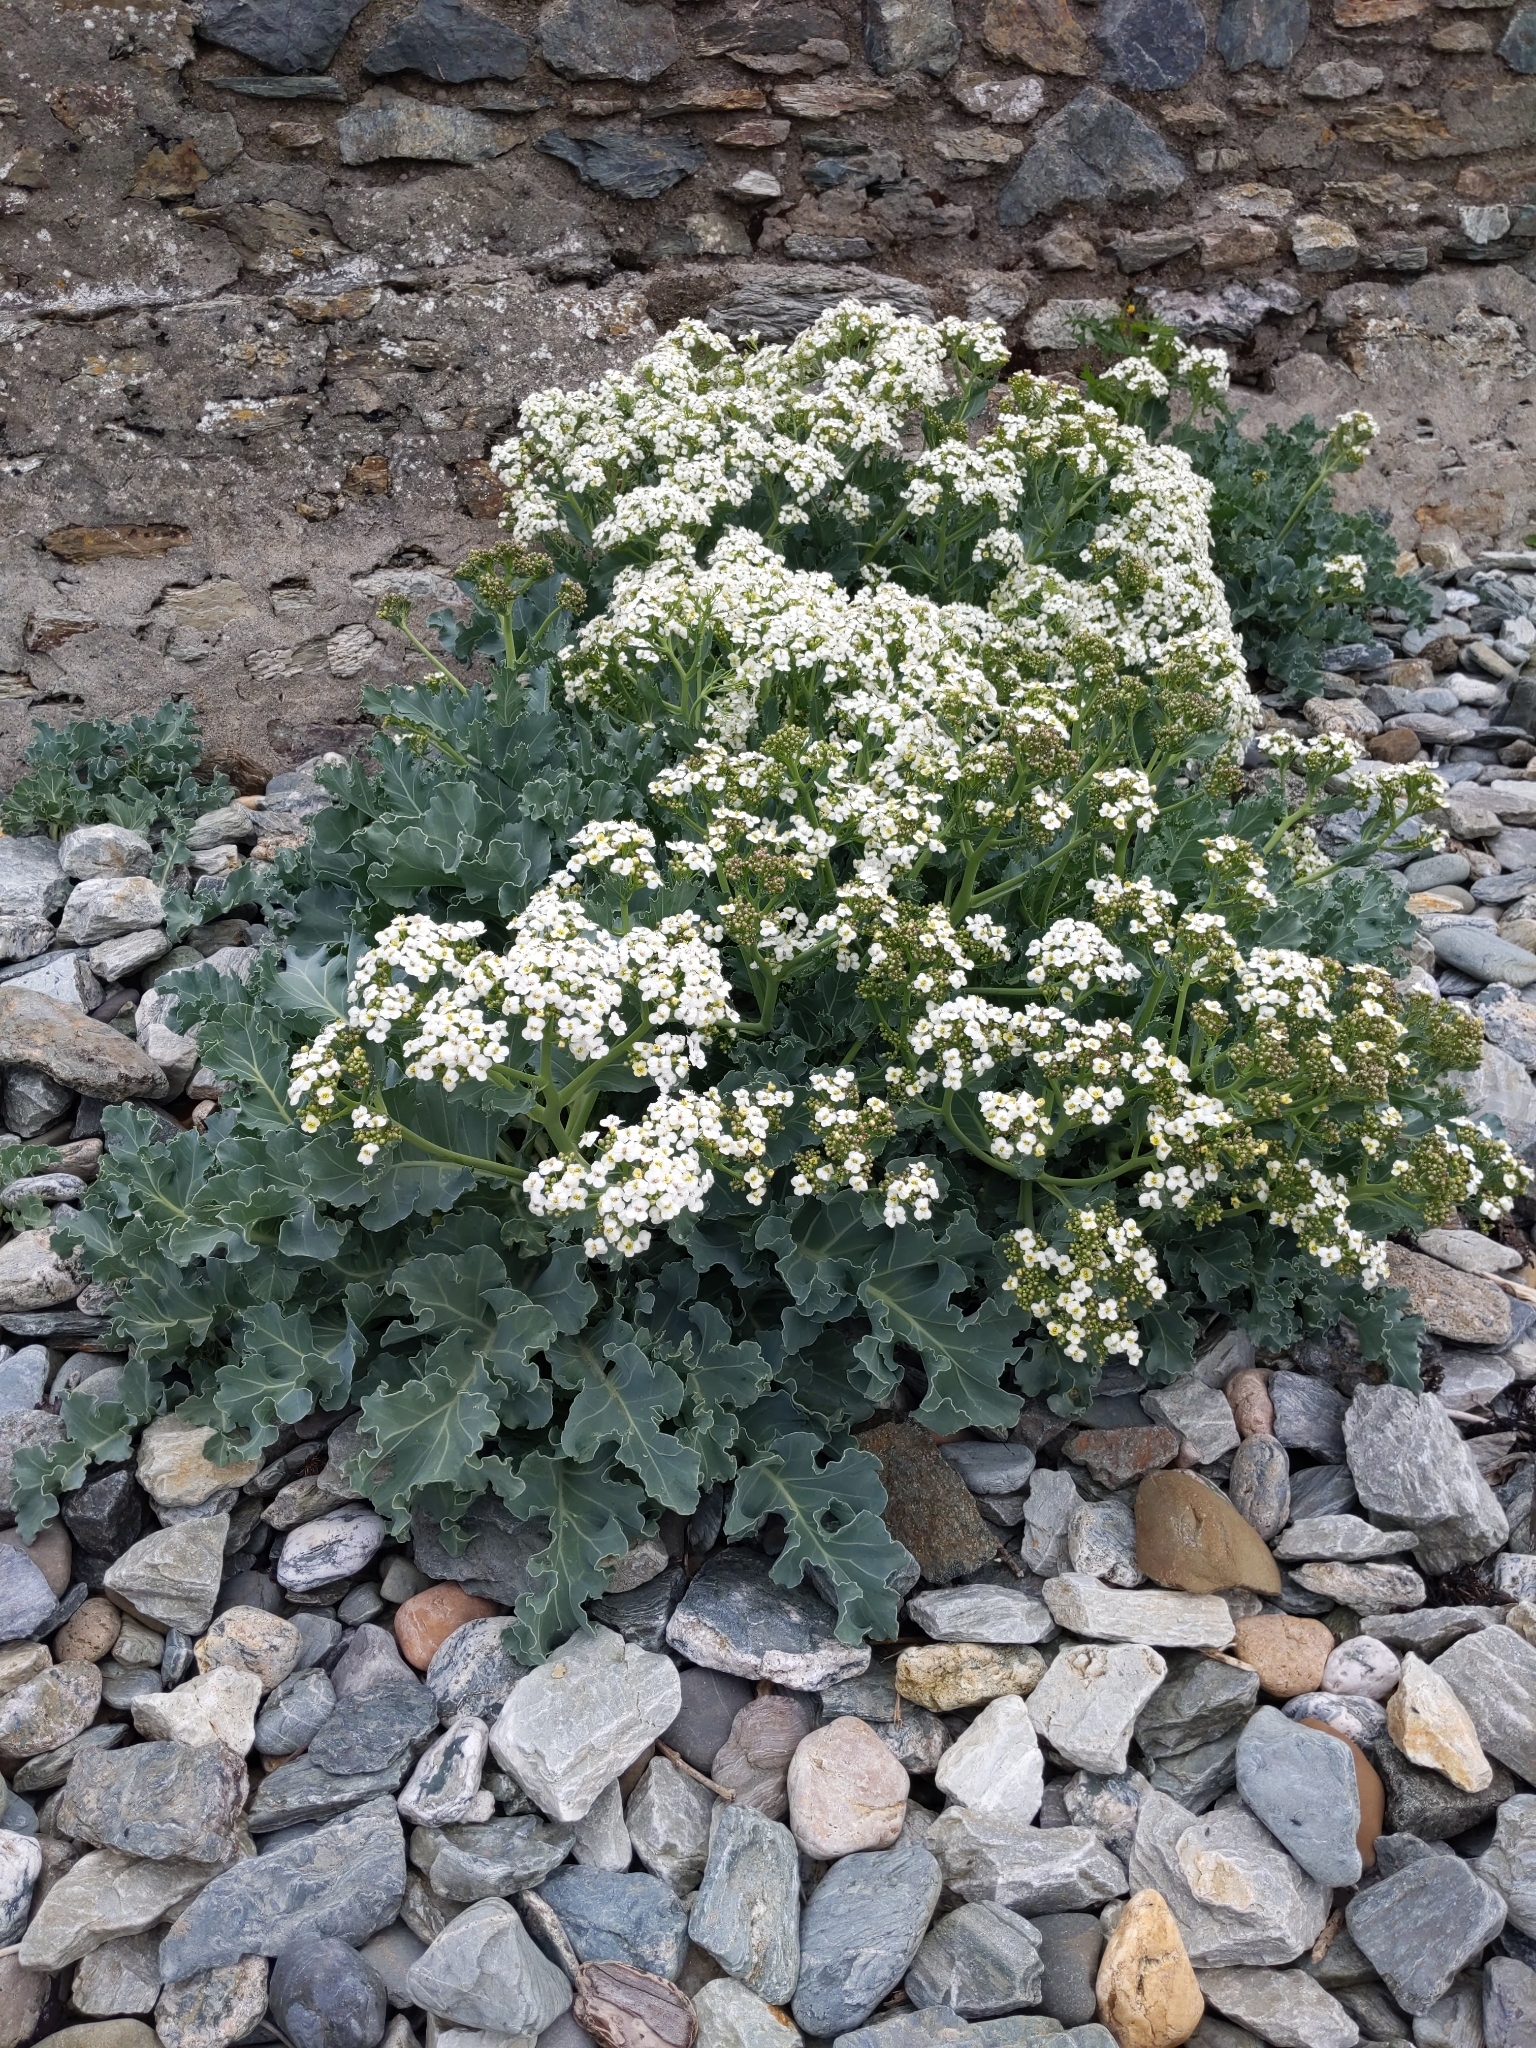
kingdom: Plantae
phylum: Tracheophyta
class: Magnoliopsida
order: Brassicales
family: Brassicaceae
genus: Crambe
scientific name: Crambe maritima
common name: Sea-kale
